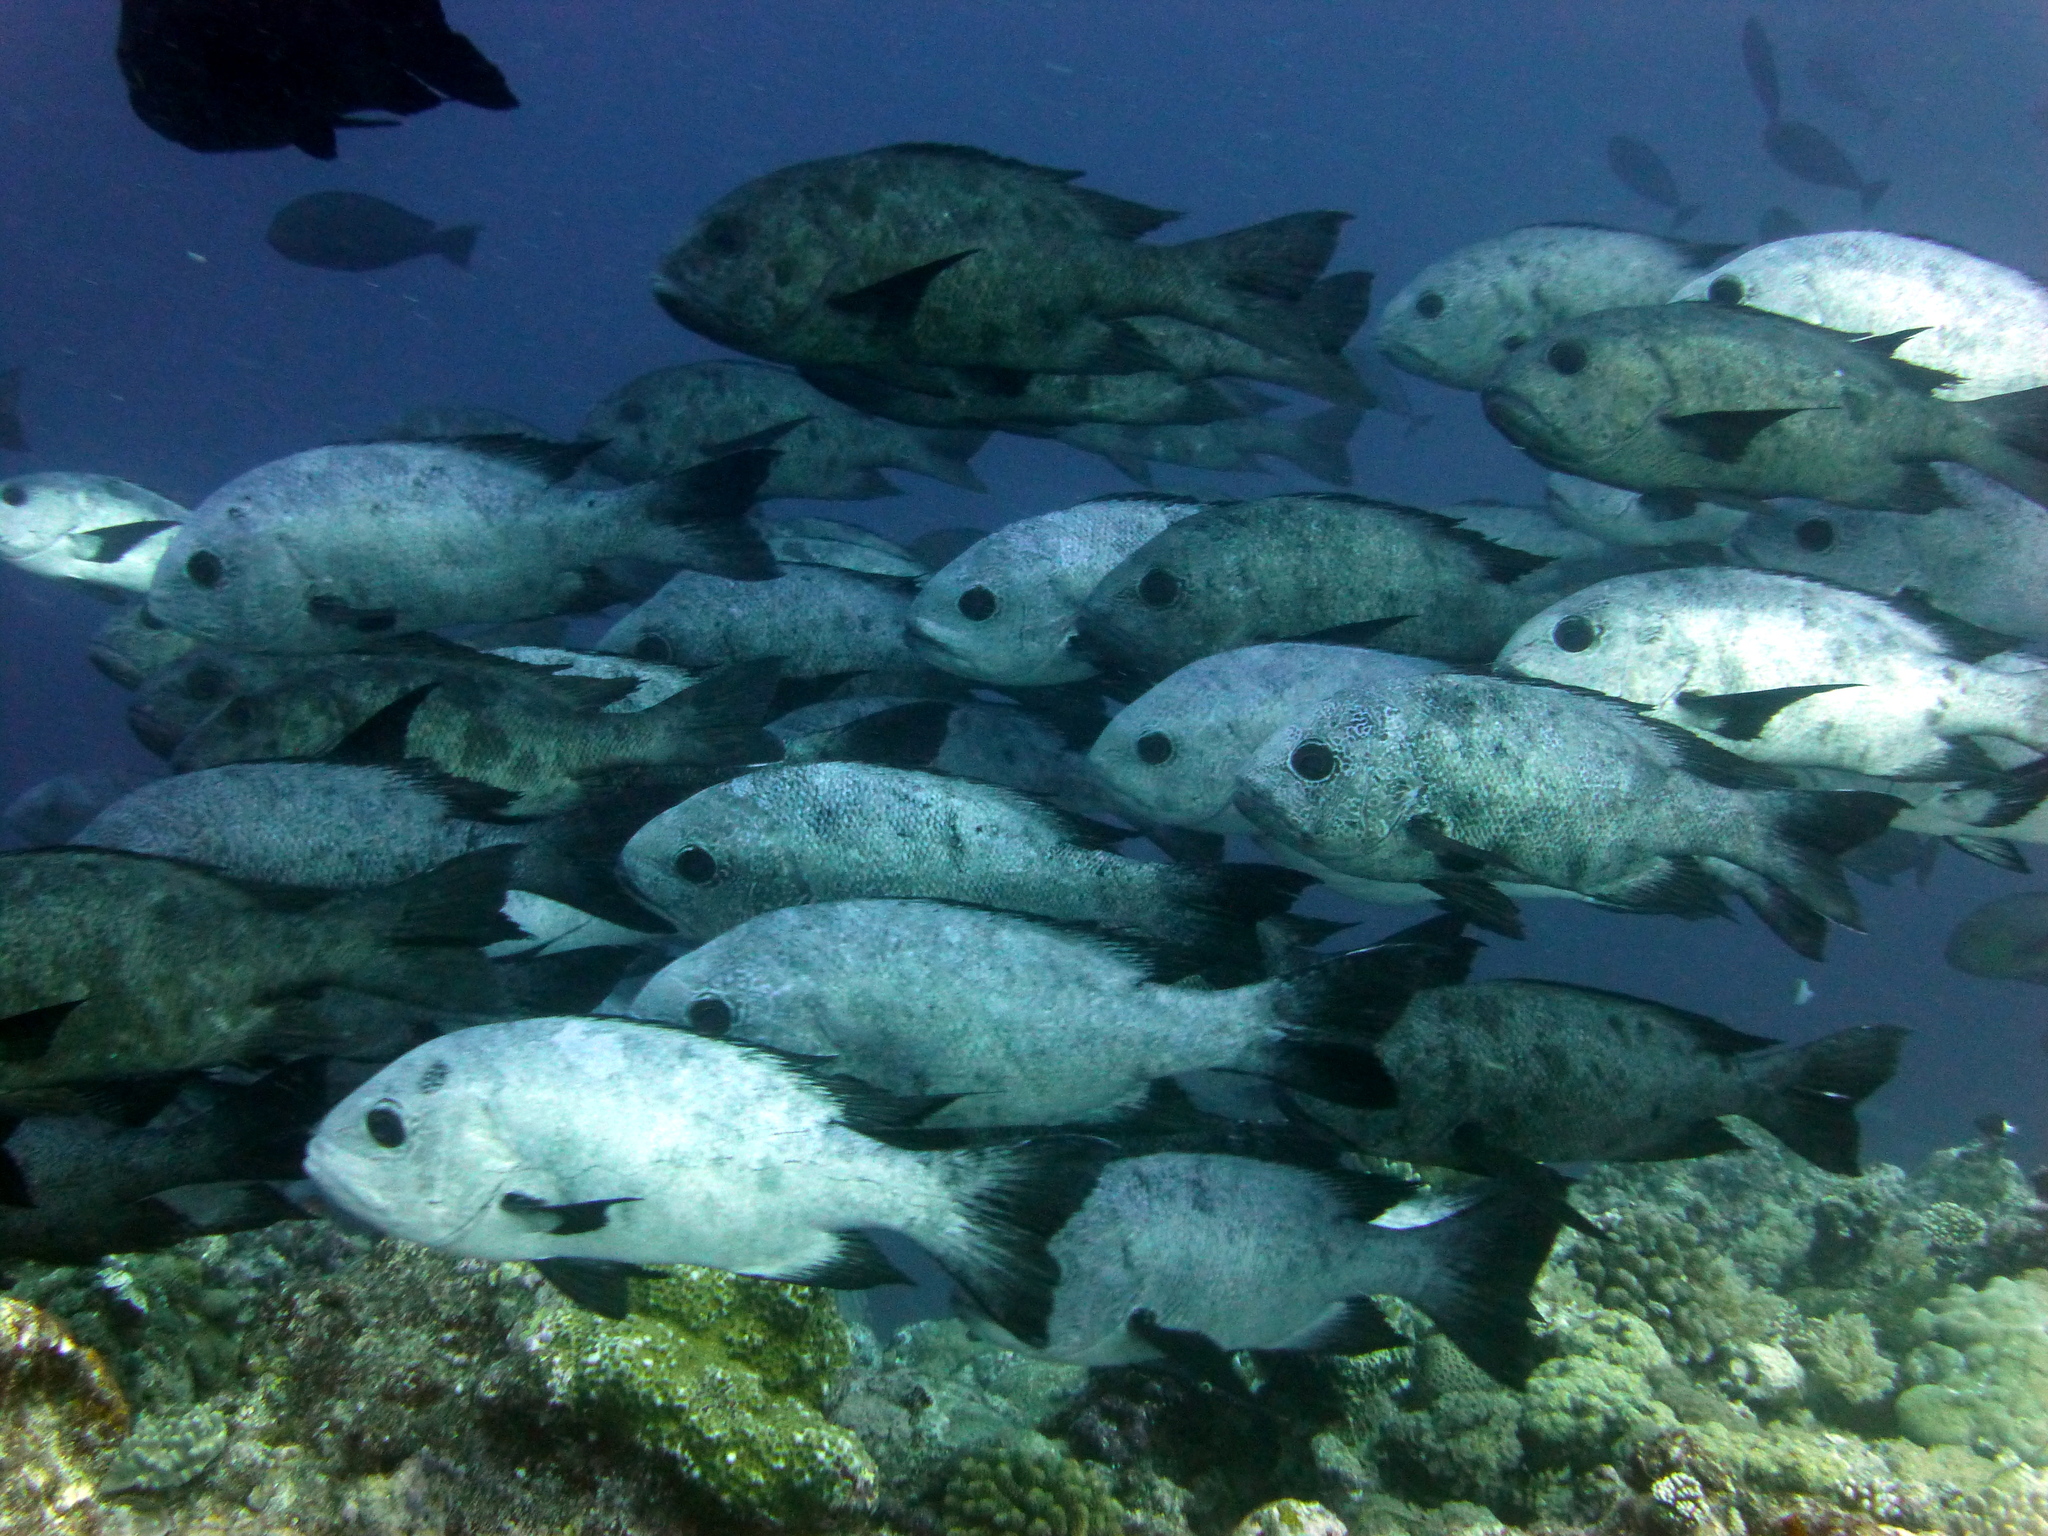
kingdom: Animalia
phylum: Chordata
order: Perciformes
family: Lutjanidae
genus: Macolor
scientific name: Macolor niger
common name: Black snapper
